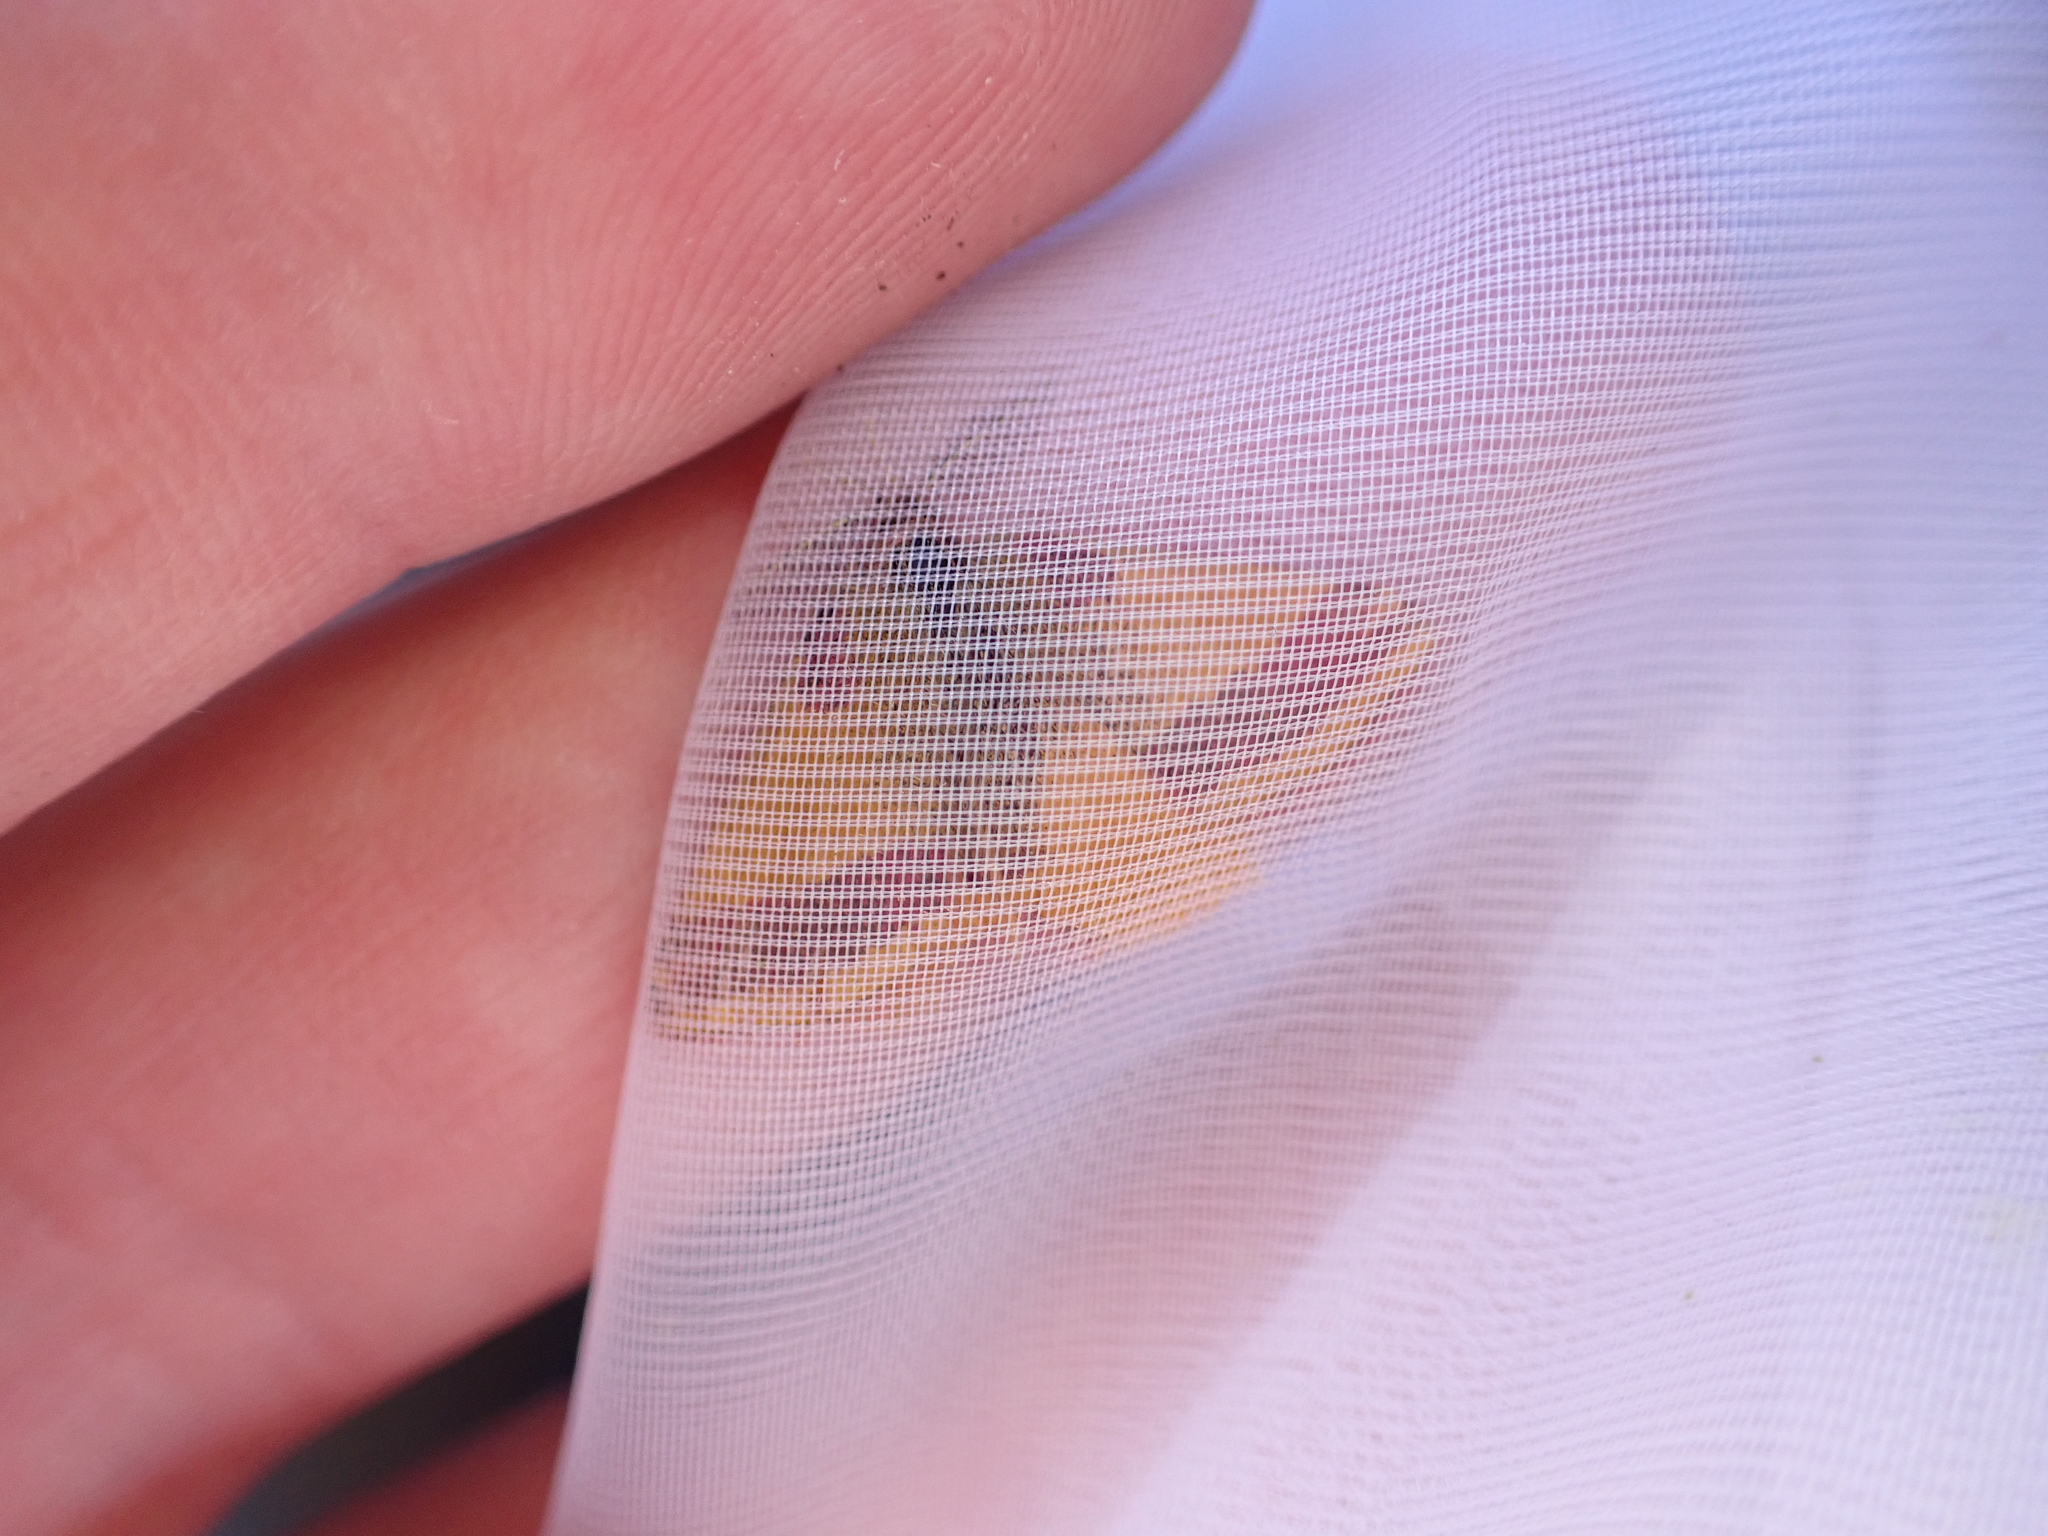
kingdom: Animalia
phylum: Arthropoda
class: Insecta
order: Lepidoptera
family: Geometridae
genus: Lythria
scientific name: Lythria cruentaria
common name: Purple-barred yellow
